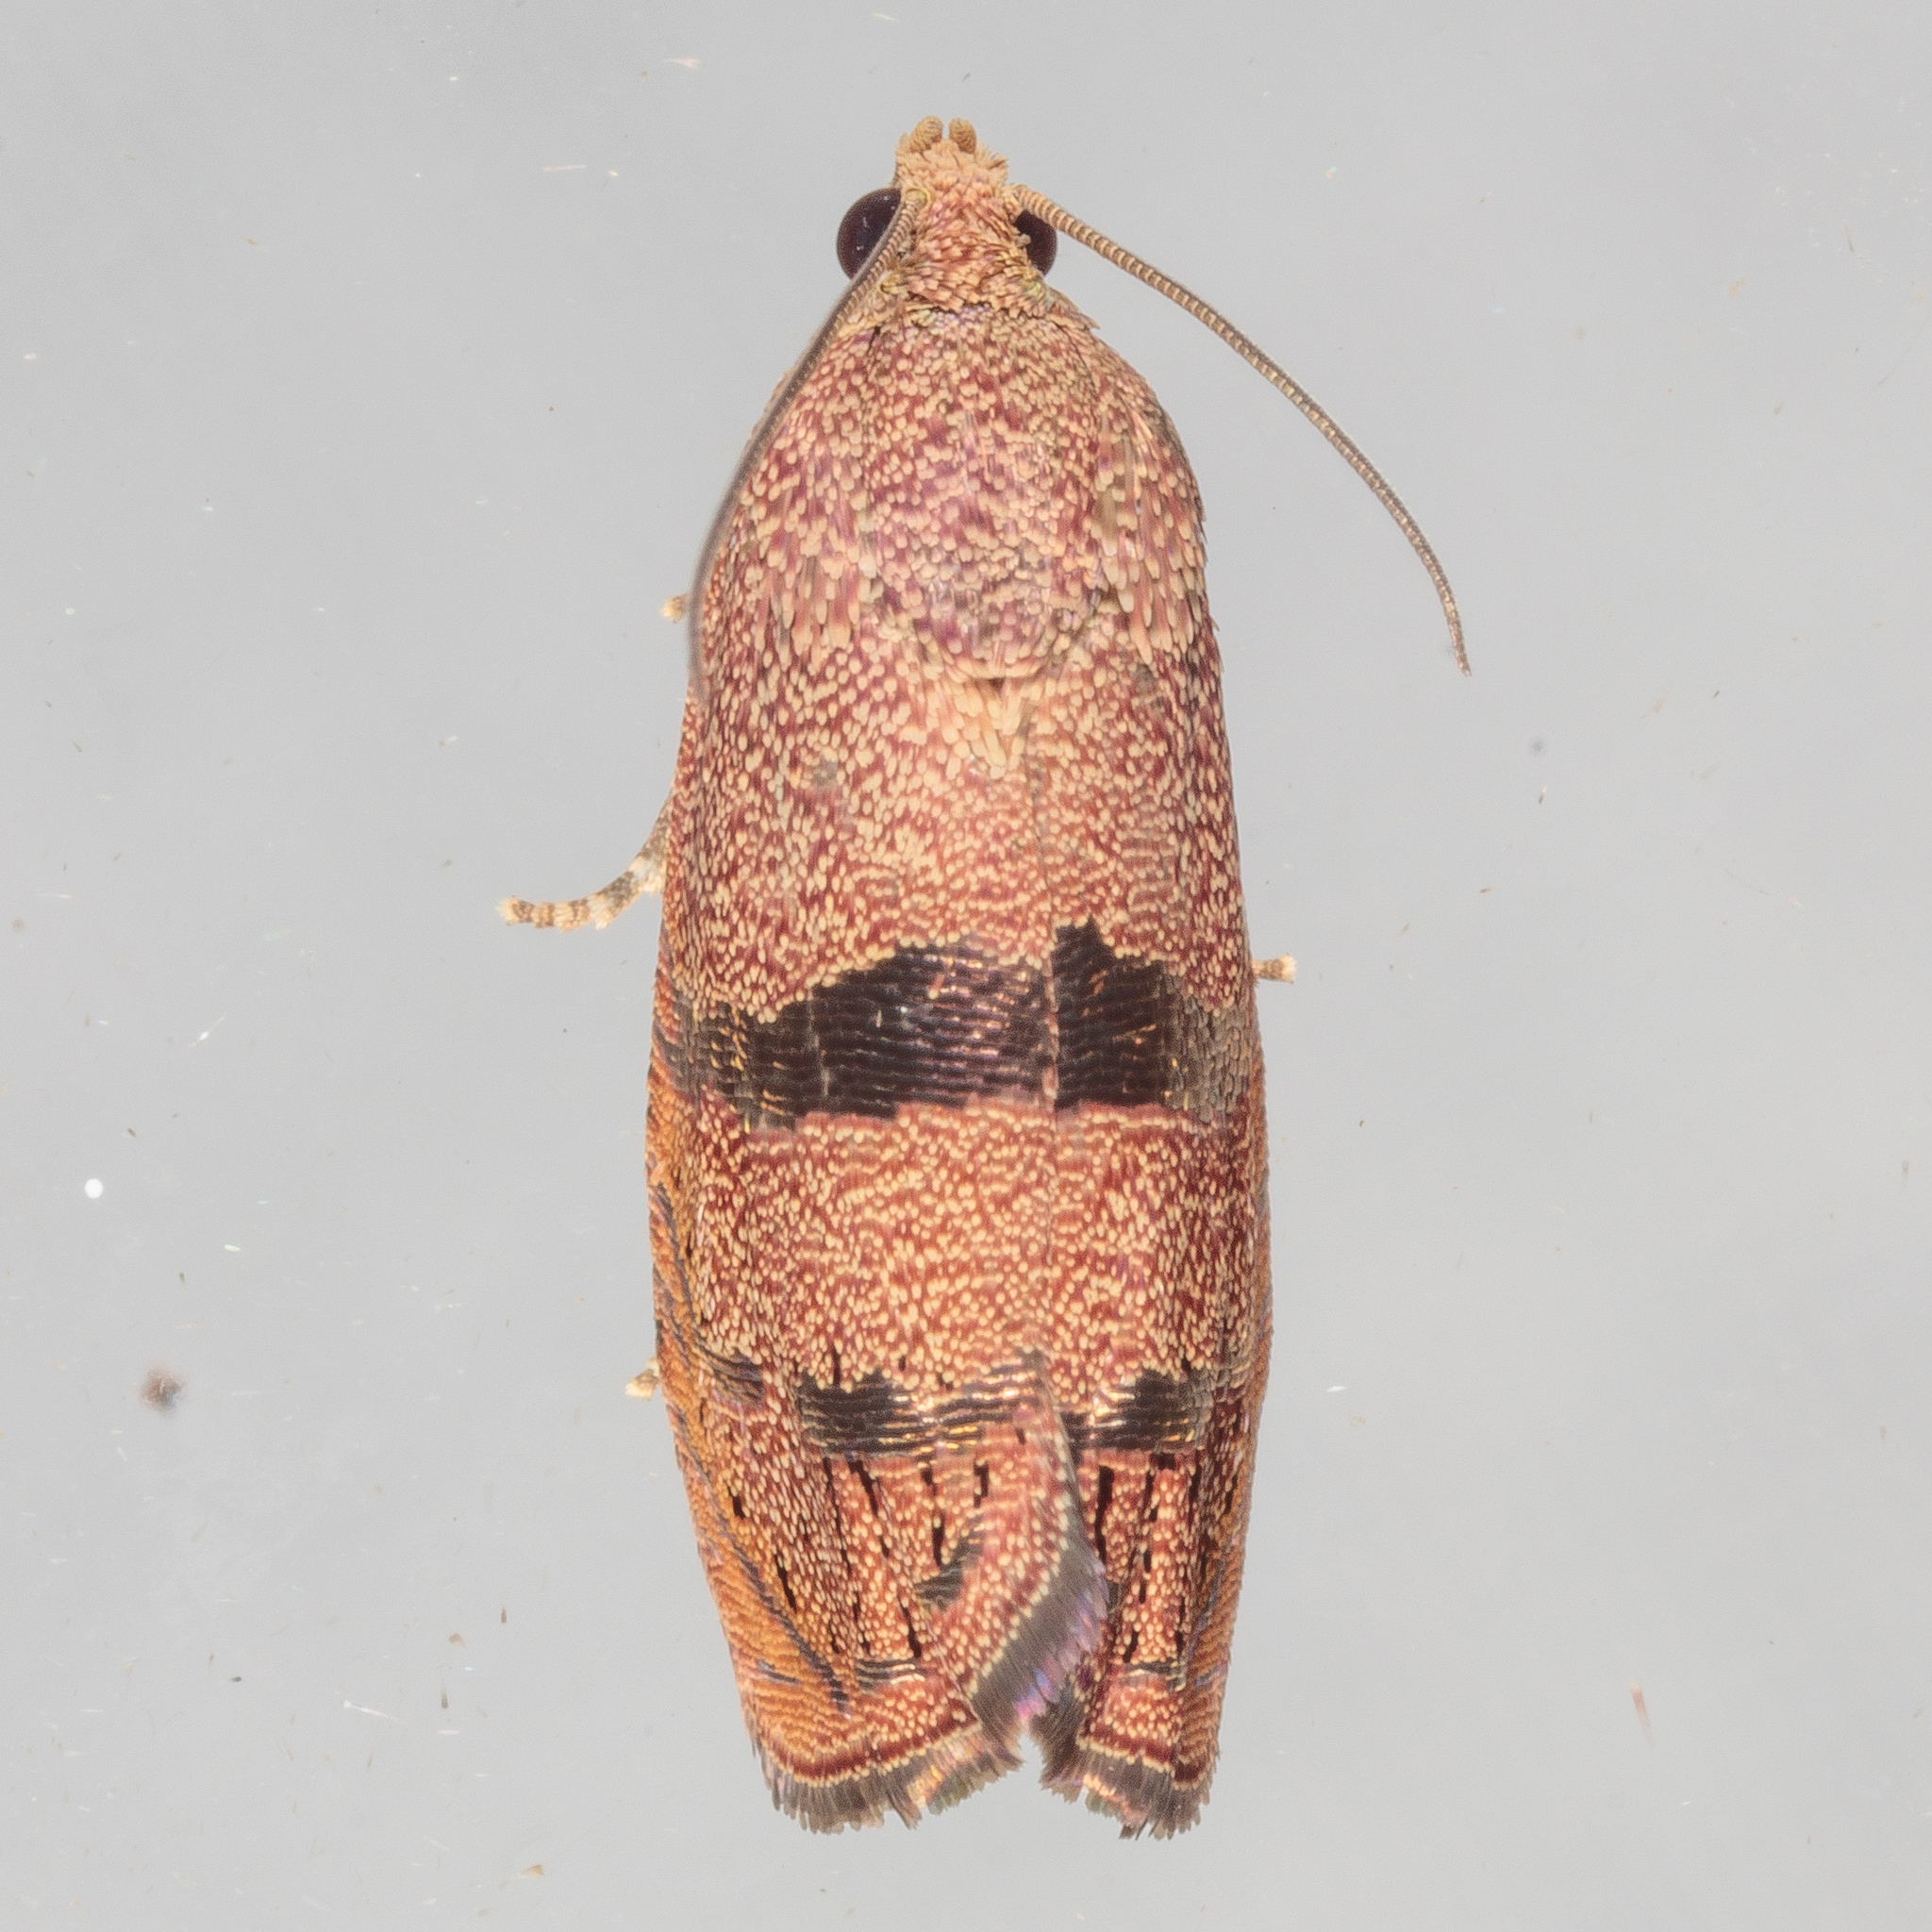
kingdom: Animalia
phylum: Arthropoda
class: Insecta
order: Lepidoptera
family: Tortricidae
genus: Cydia
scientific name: Cydia latiferreana
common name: Filbertworm moth
